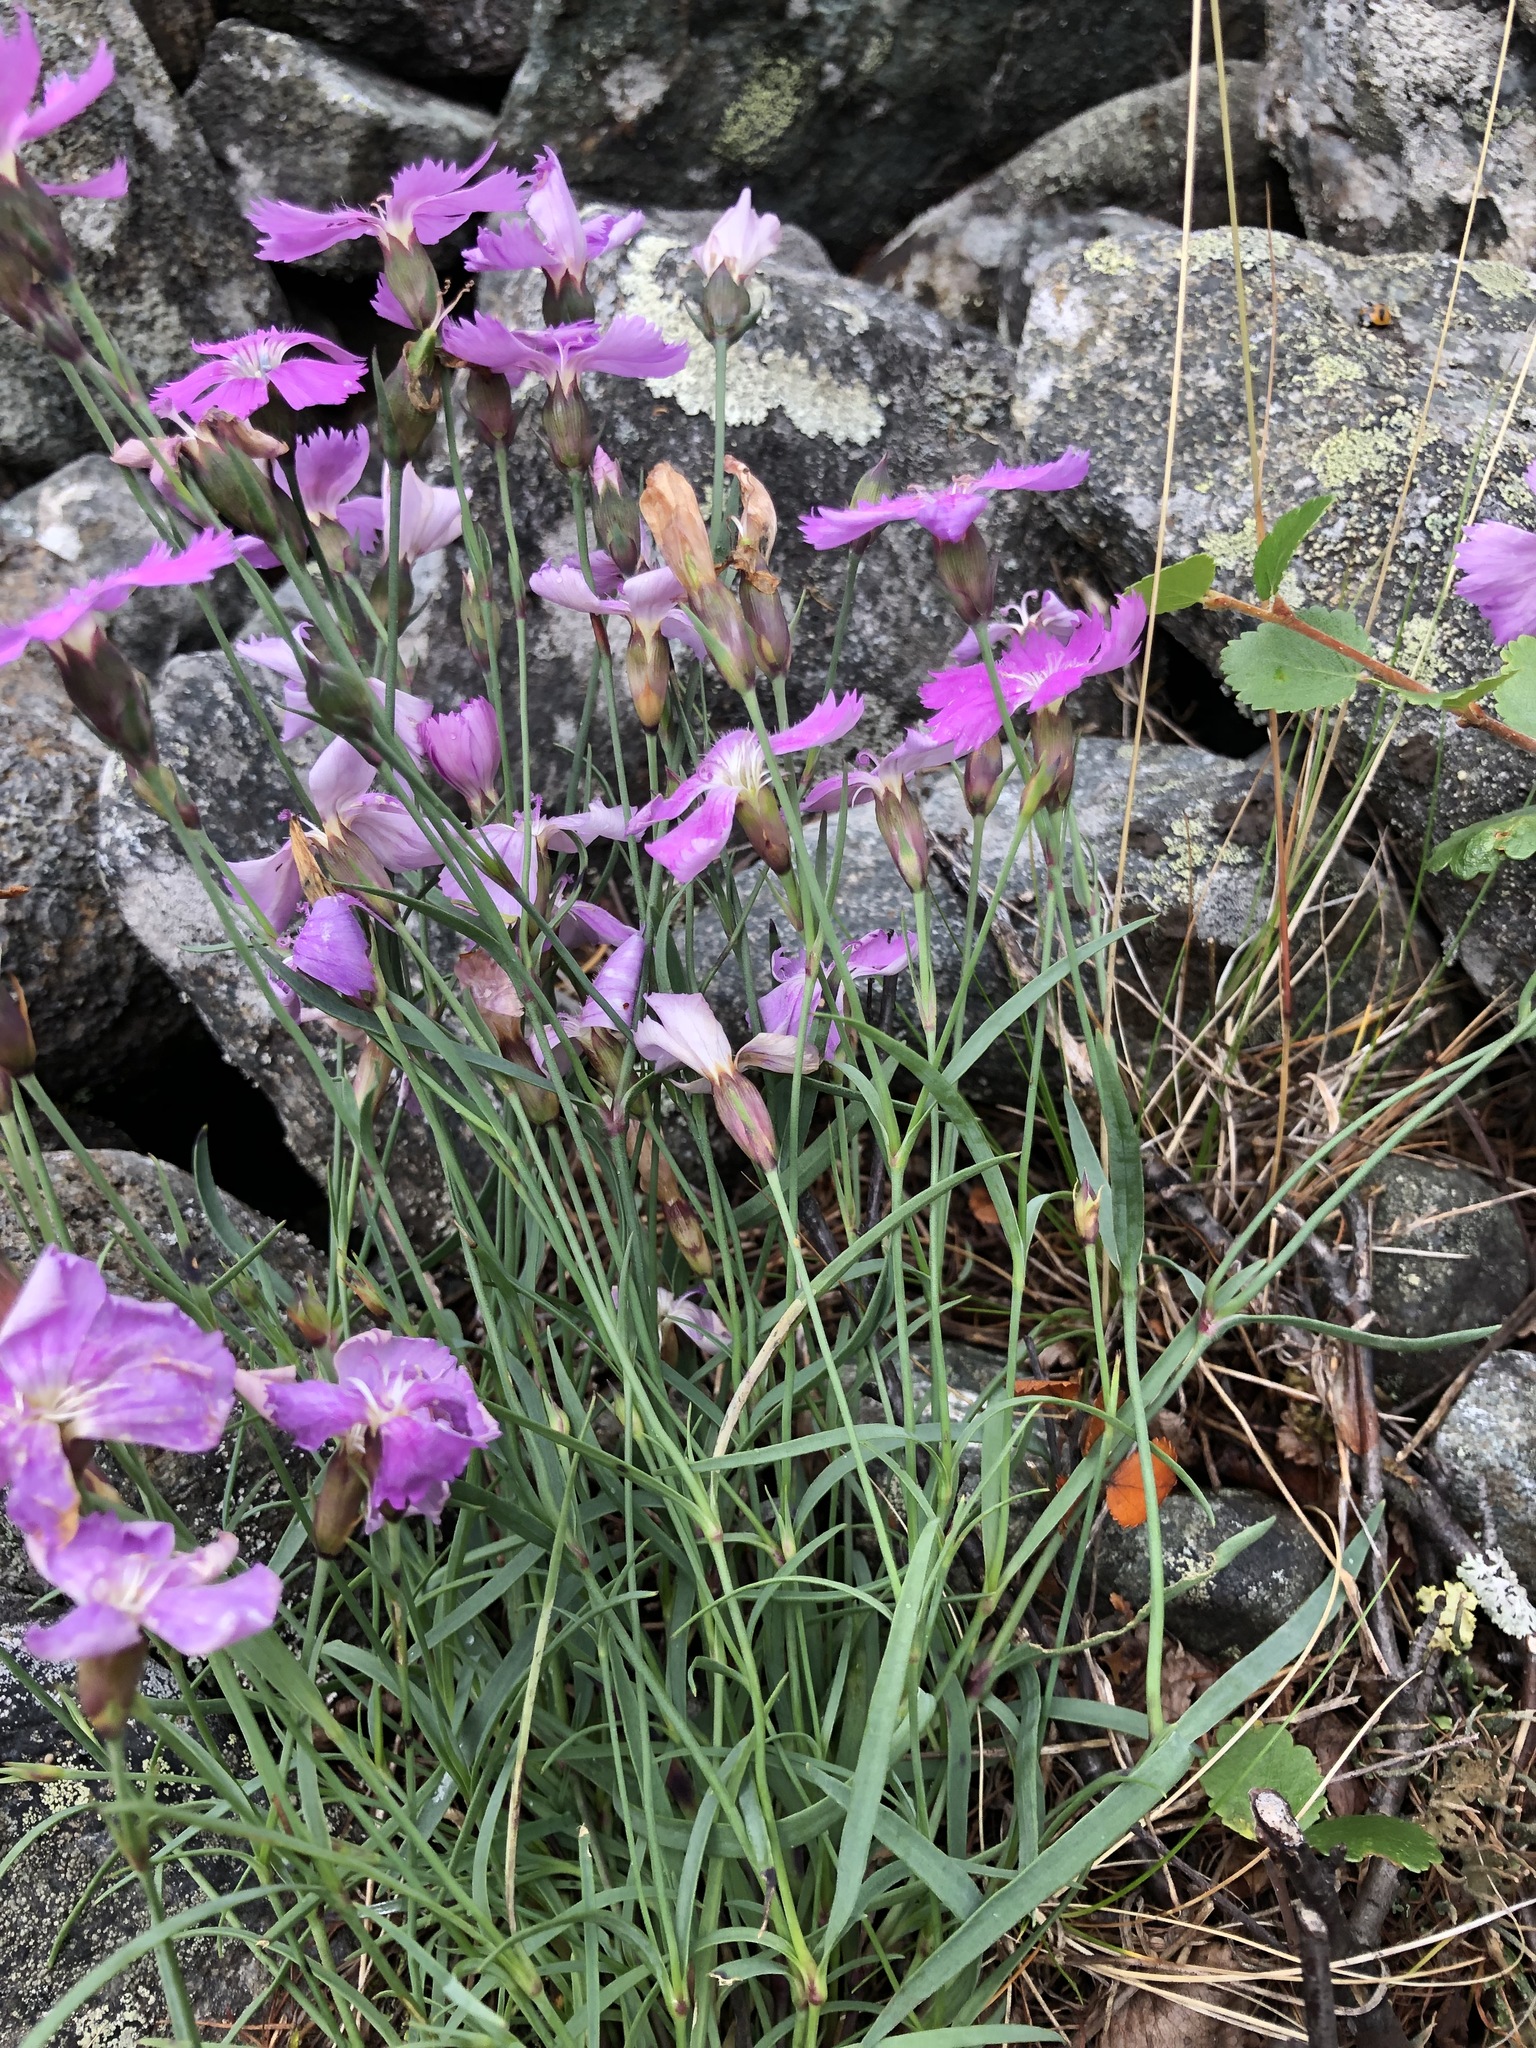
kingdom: Plantae
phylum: Tracheophyta
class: Magnoliopsida
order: Caryophyllales
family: Caryophyllaceae
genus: Dianthus
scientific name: Dianthus repens
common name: Northern pink
